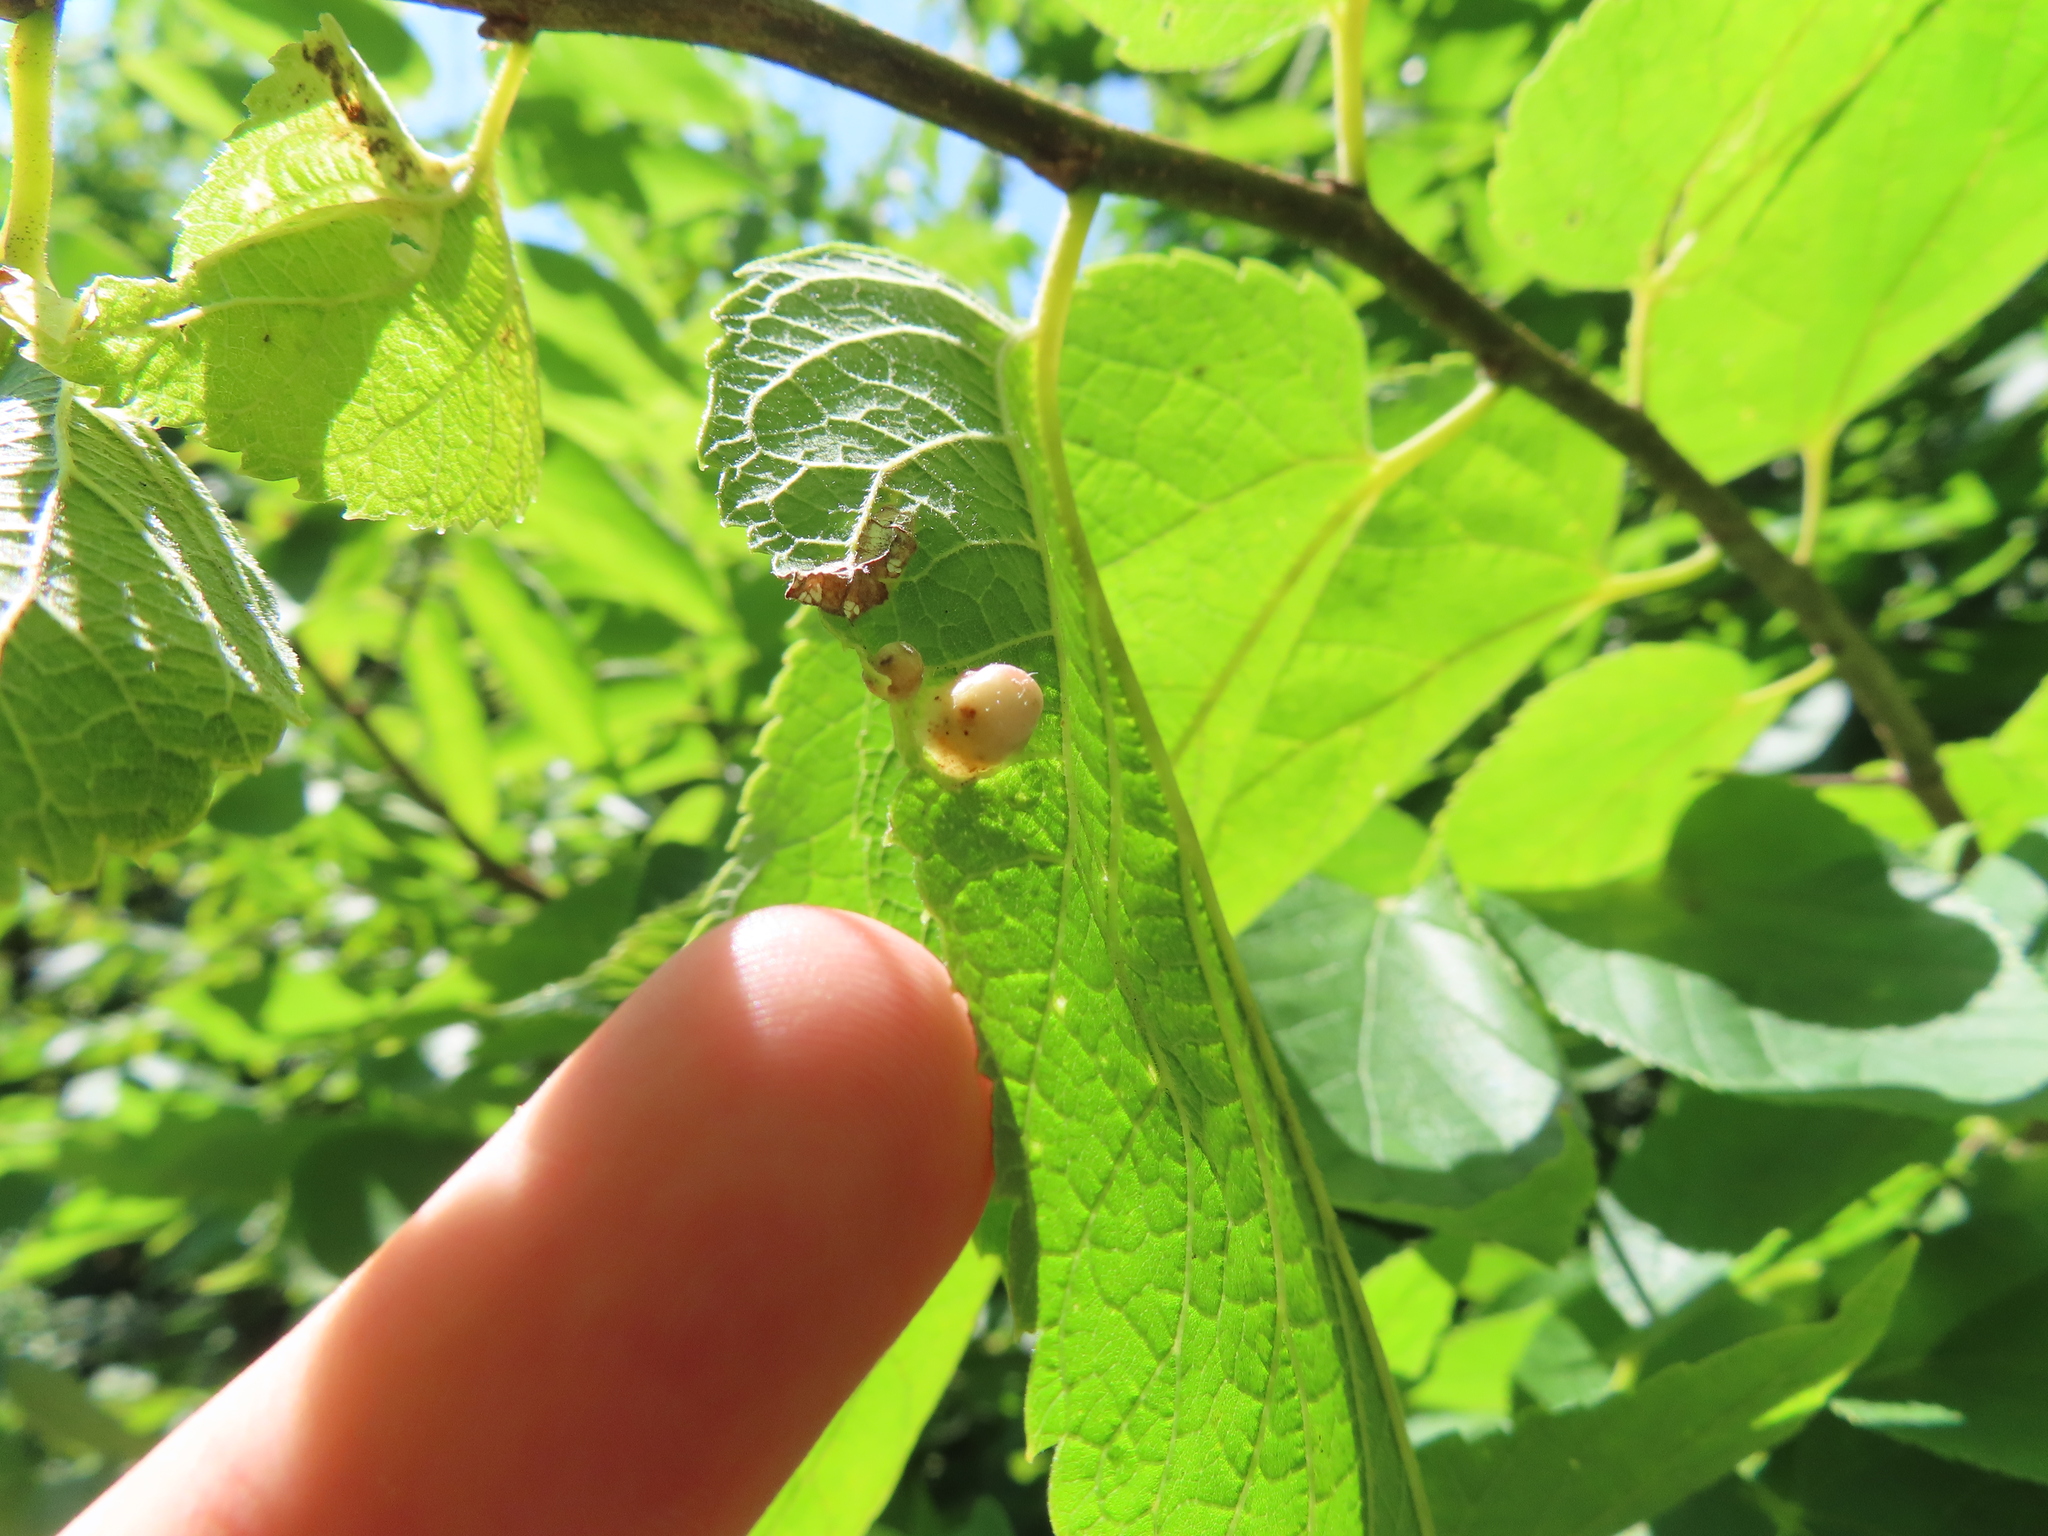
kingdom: Animalia
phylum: Arthropoda
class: Insecta
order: Hemiptera
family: Aphalaridae
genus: Pachypsylla
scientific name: Pachypsylla celtidismamma
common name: Hackberry nipplegall psyllid
